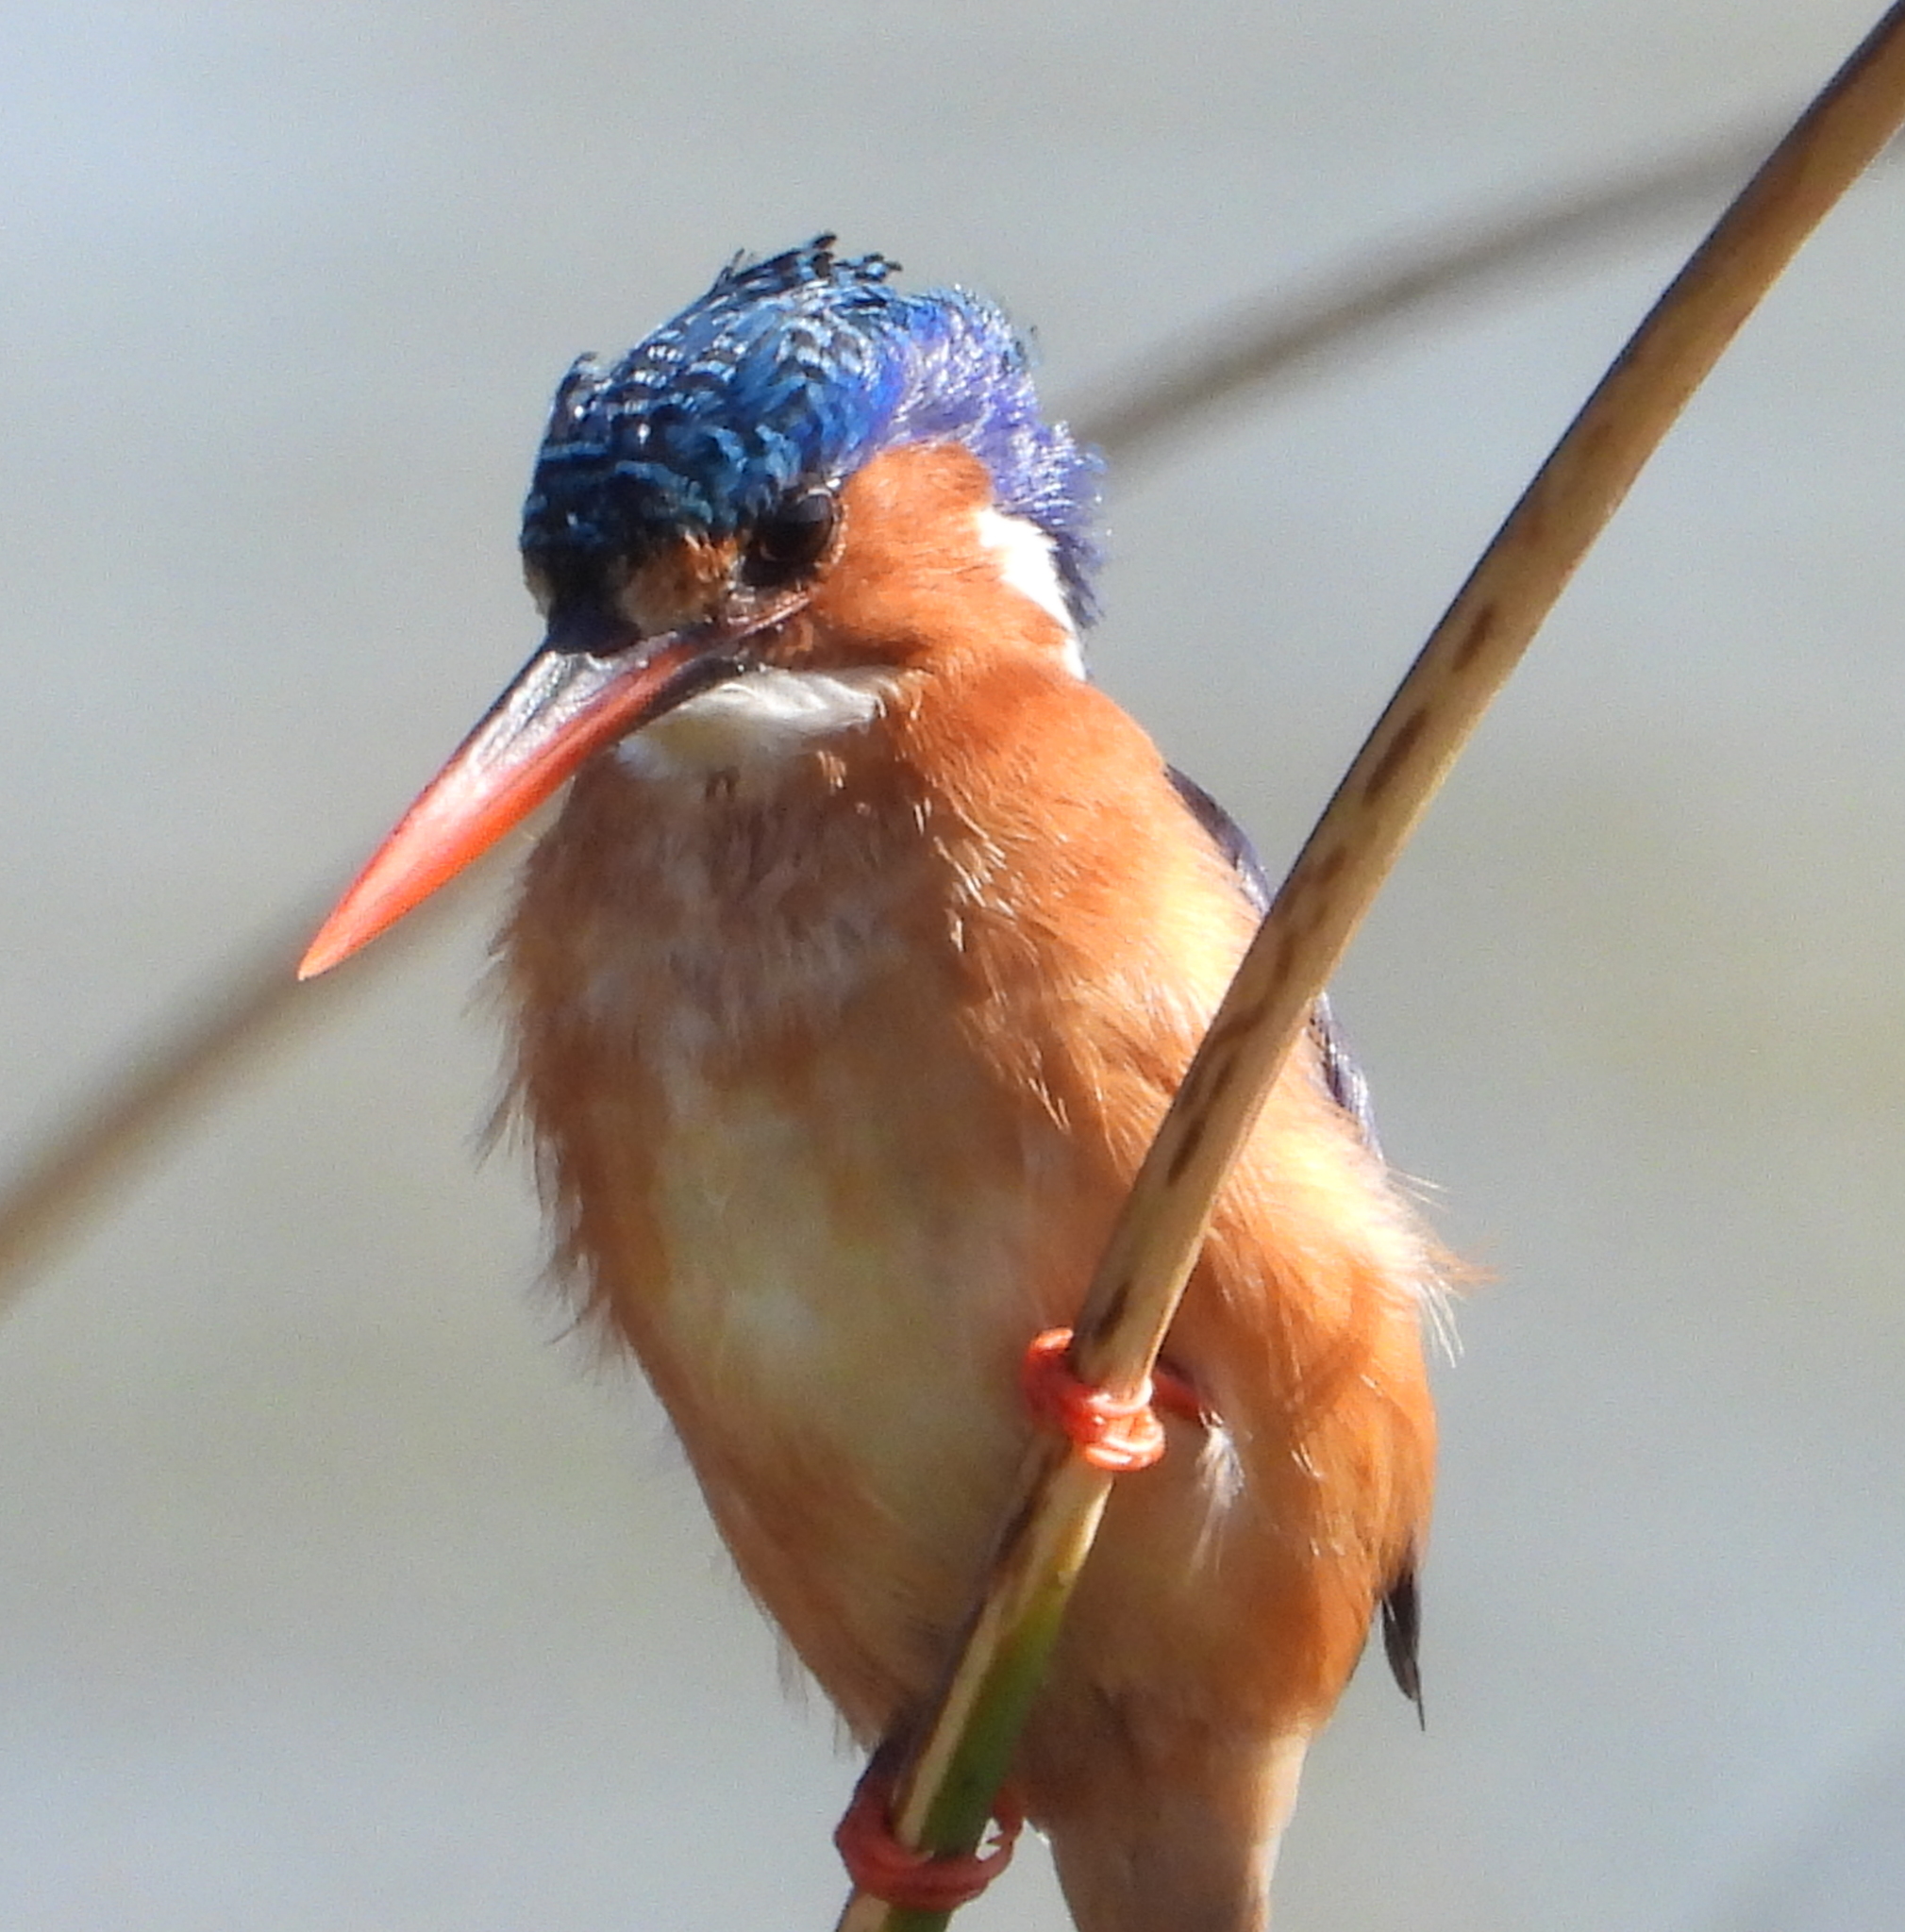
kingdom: Animalia
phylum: Chordata
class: Aves
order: Coraciiformes
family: Alcedinidae
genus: Corythornis
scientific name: Corythornis cristatus
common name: Malachite kingfisher
